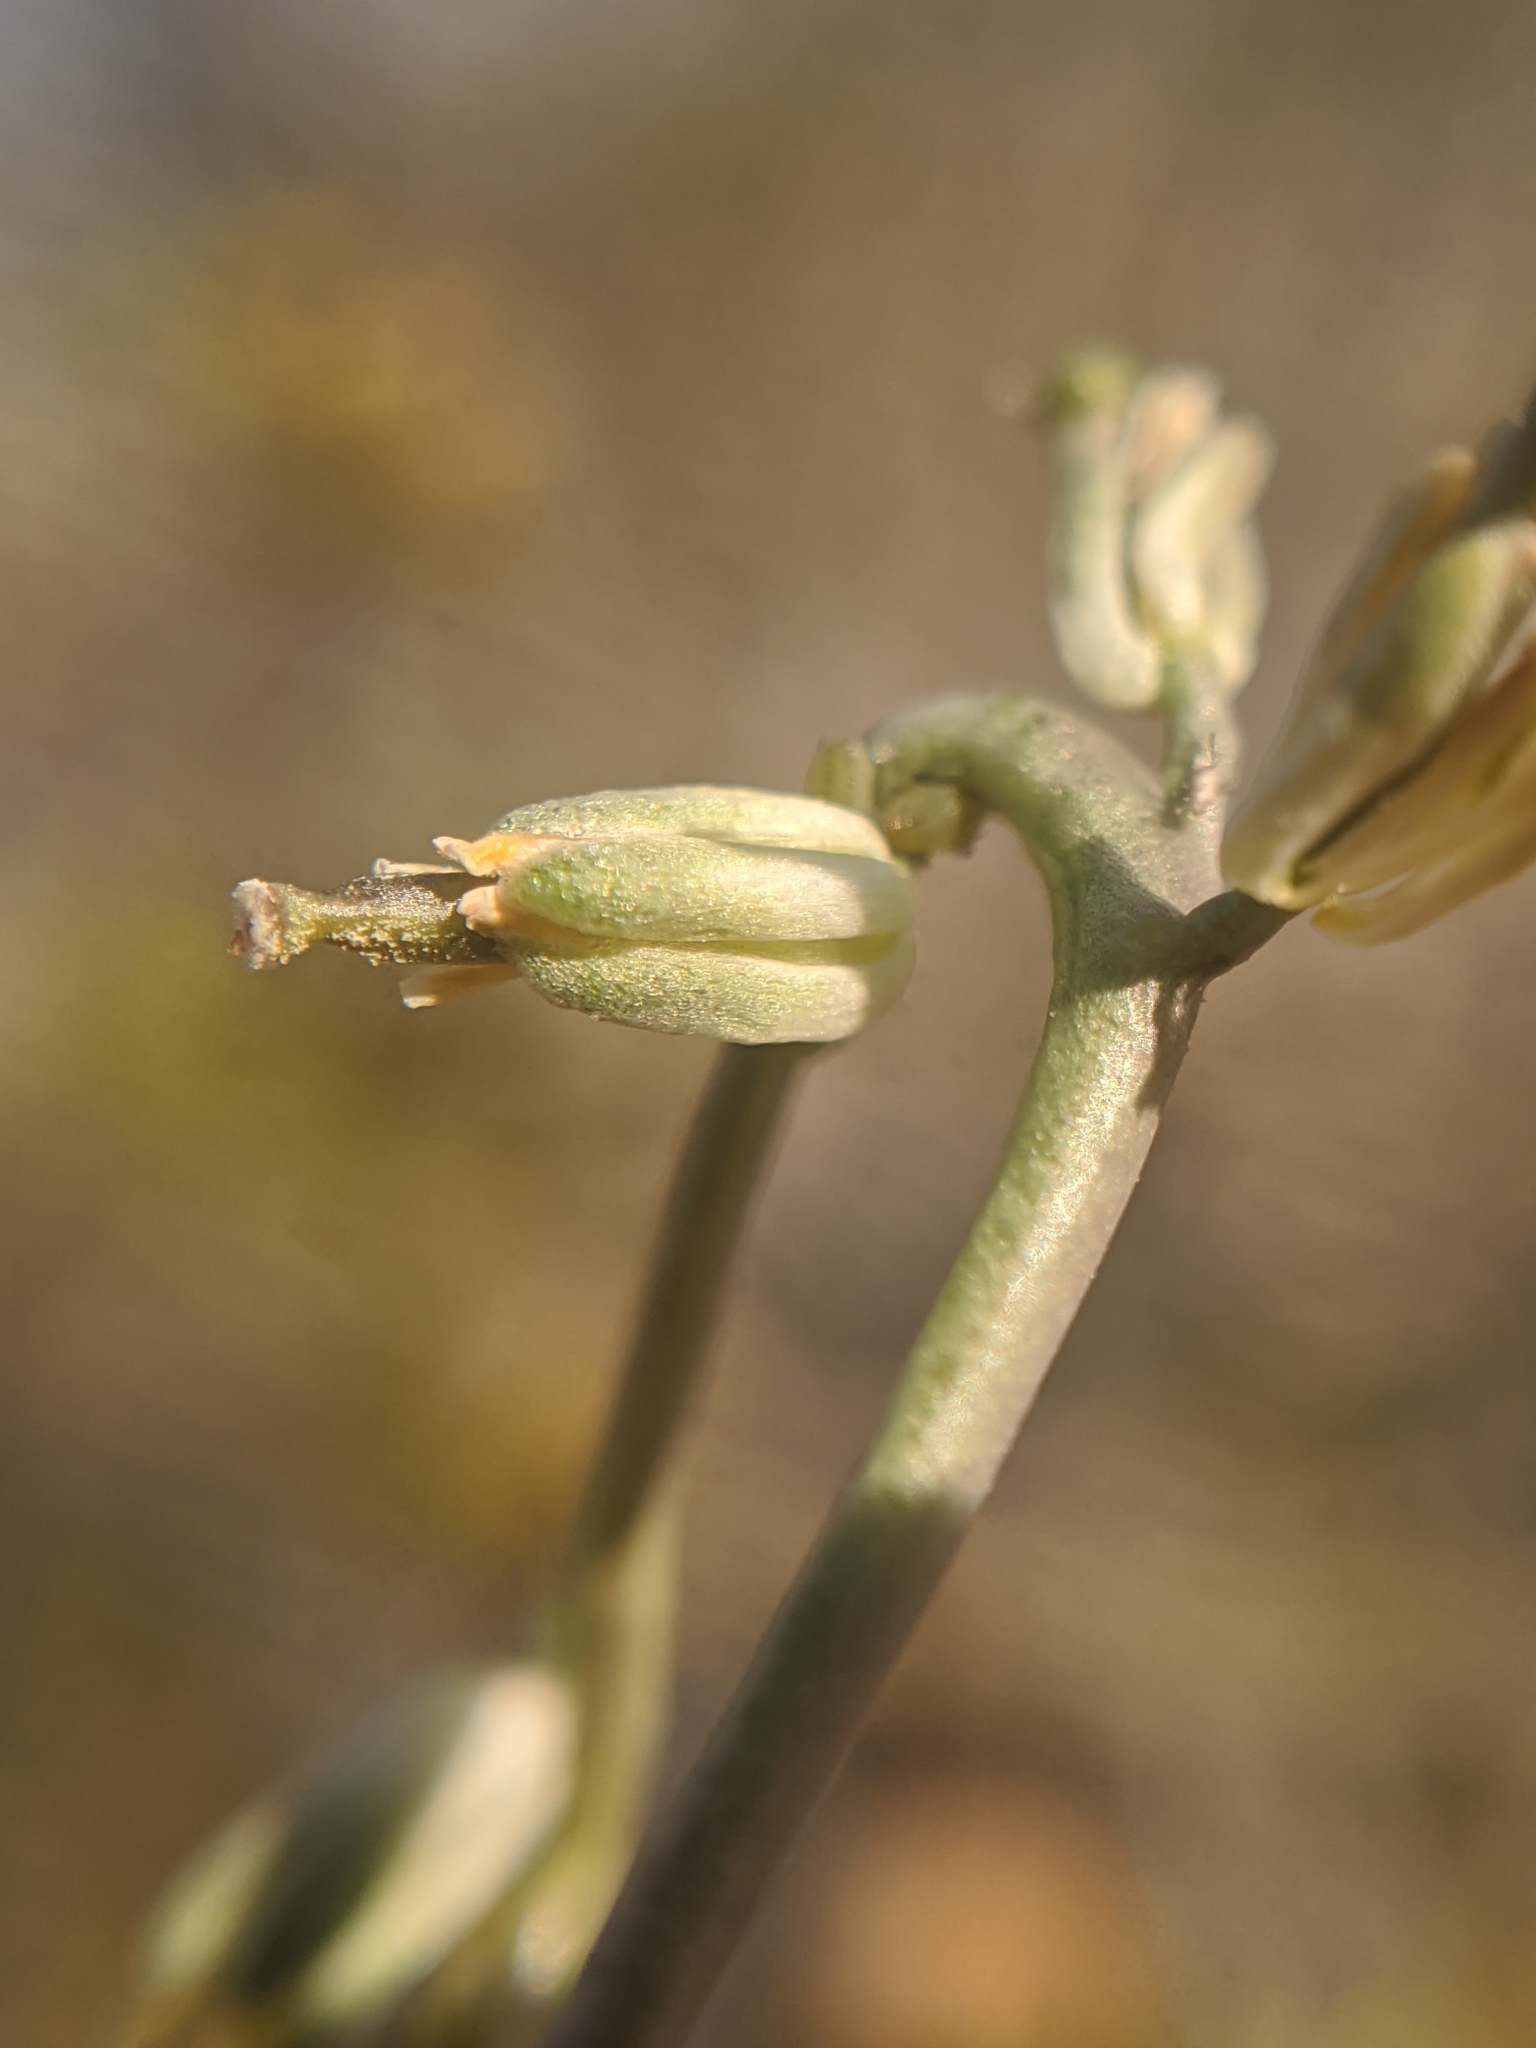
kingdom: Plantae
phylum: Tracheophyta
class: Magnoliopsida
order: Brassicales
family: Brassicaceae
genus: Streptanthus
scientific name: Streptanthus longirostris
